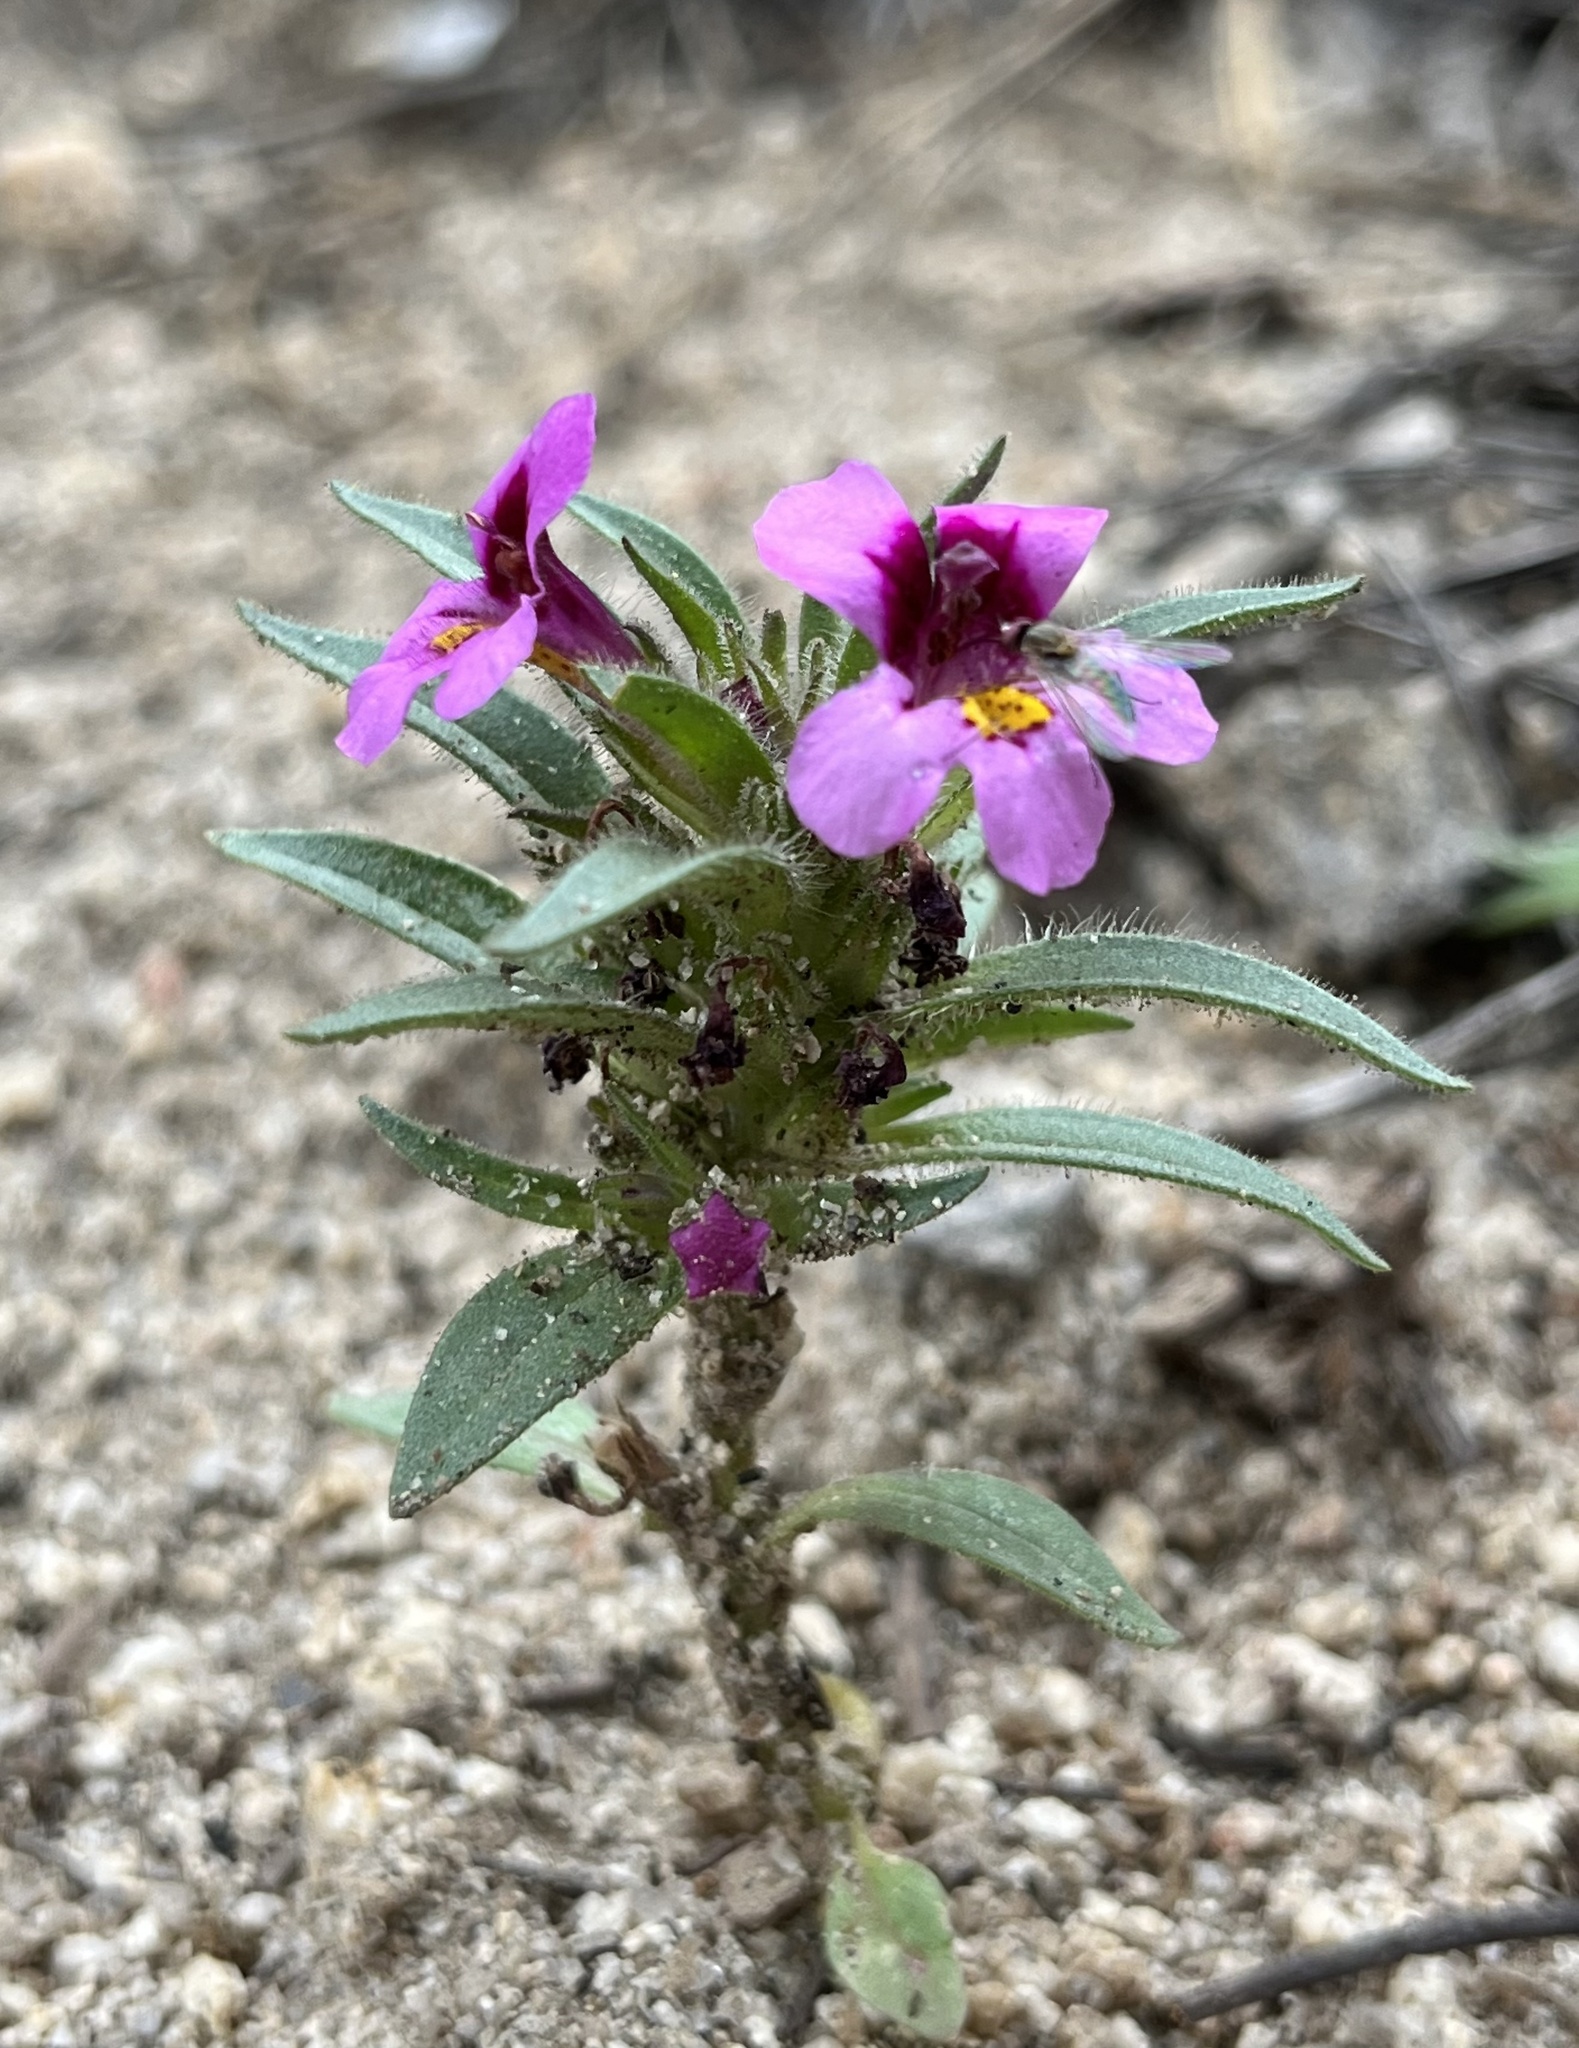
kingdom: Plantae
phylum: Tracheophyta
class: Magnoliopsida
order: Lamiales
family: Phrymaceae
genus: Diplacus
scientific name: Diplacus mephiticus
